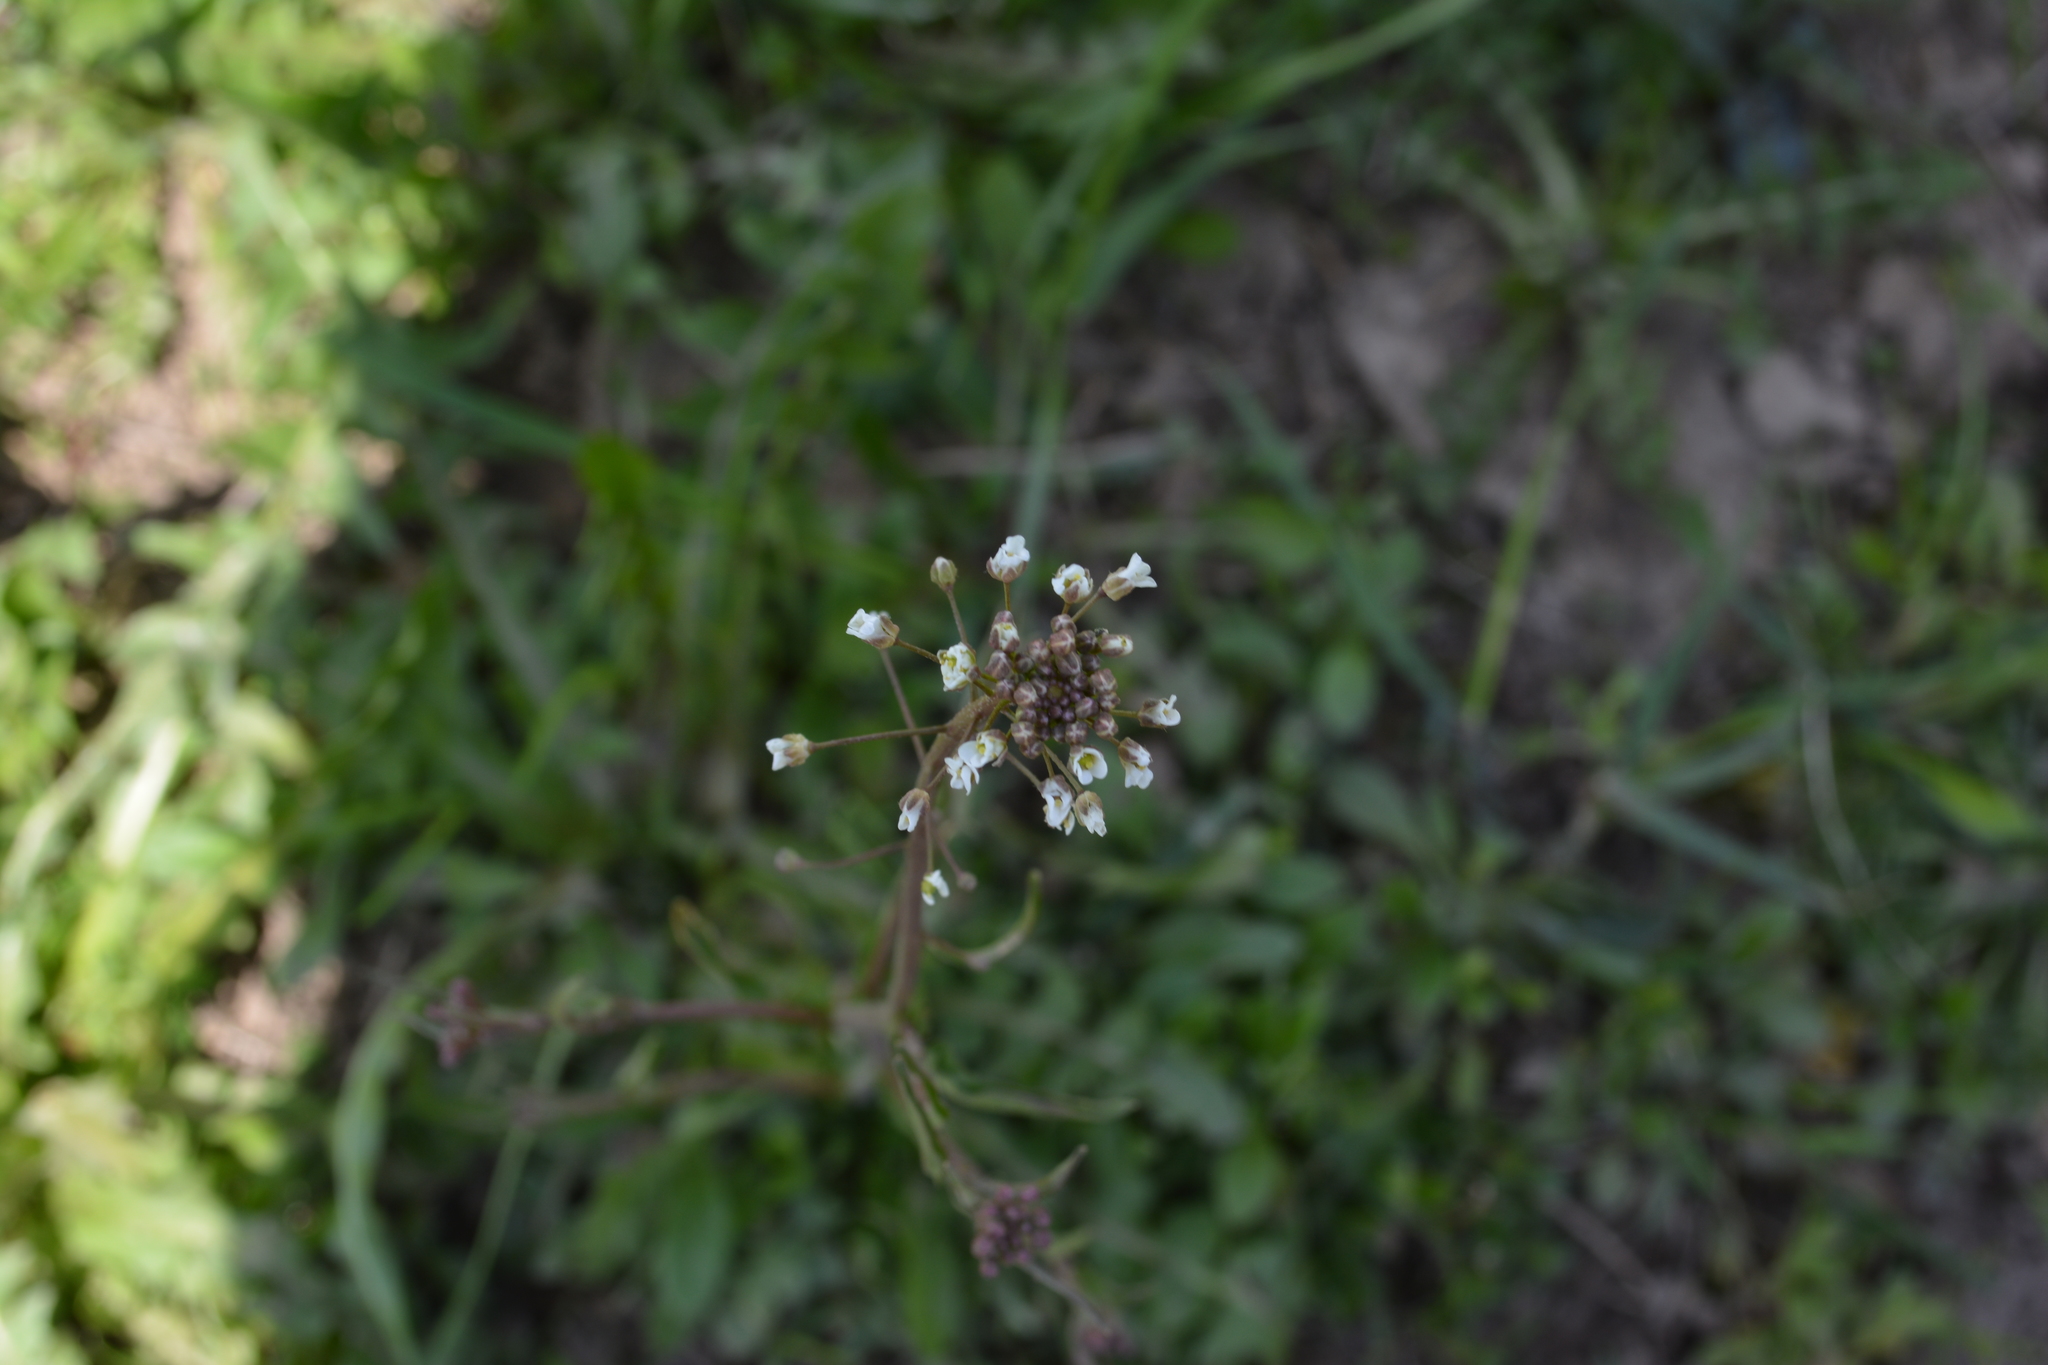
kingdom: Plantae
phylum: Tracheophyta
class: Magnoliopsida
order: Brassicales
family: Brassicaceae
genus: Capsella
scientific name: Capsella bursa-pastoris
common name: Shepherd's purse
